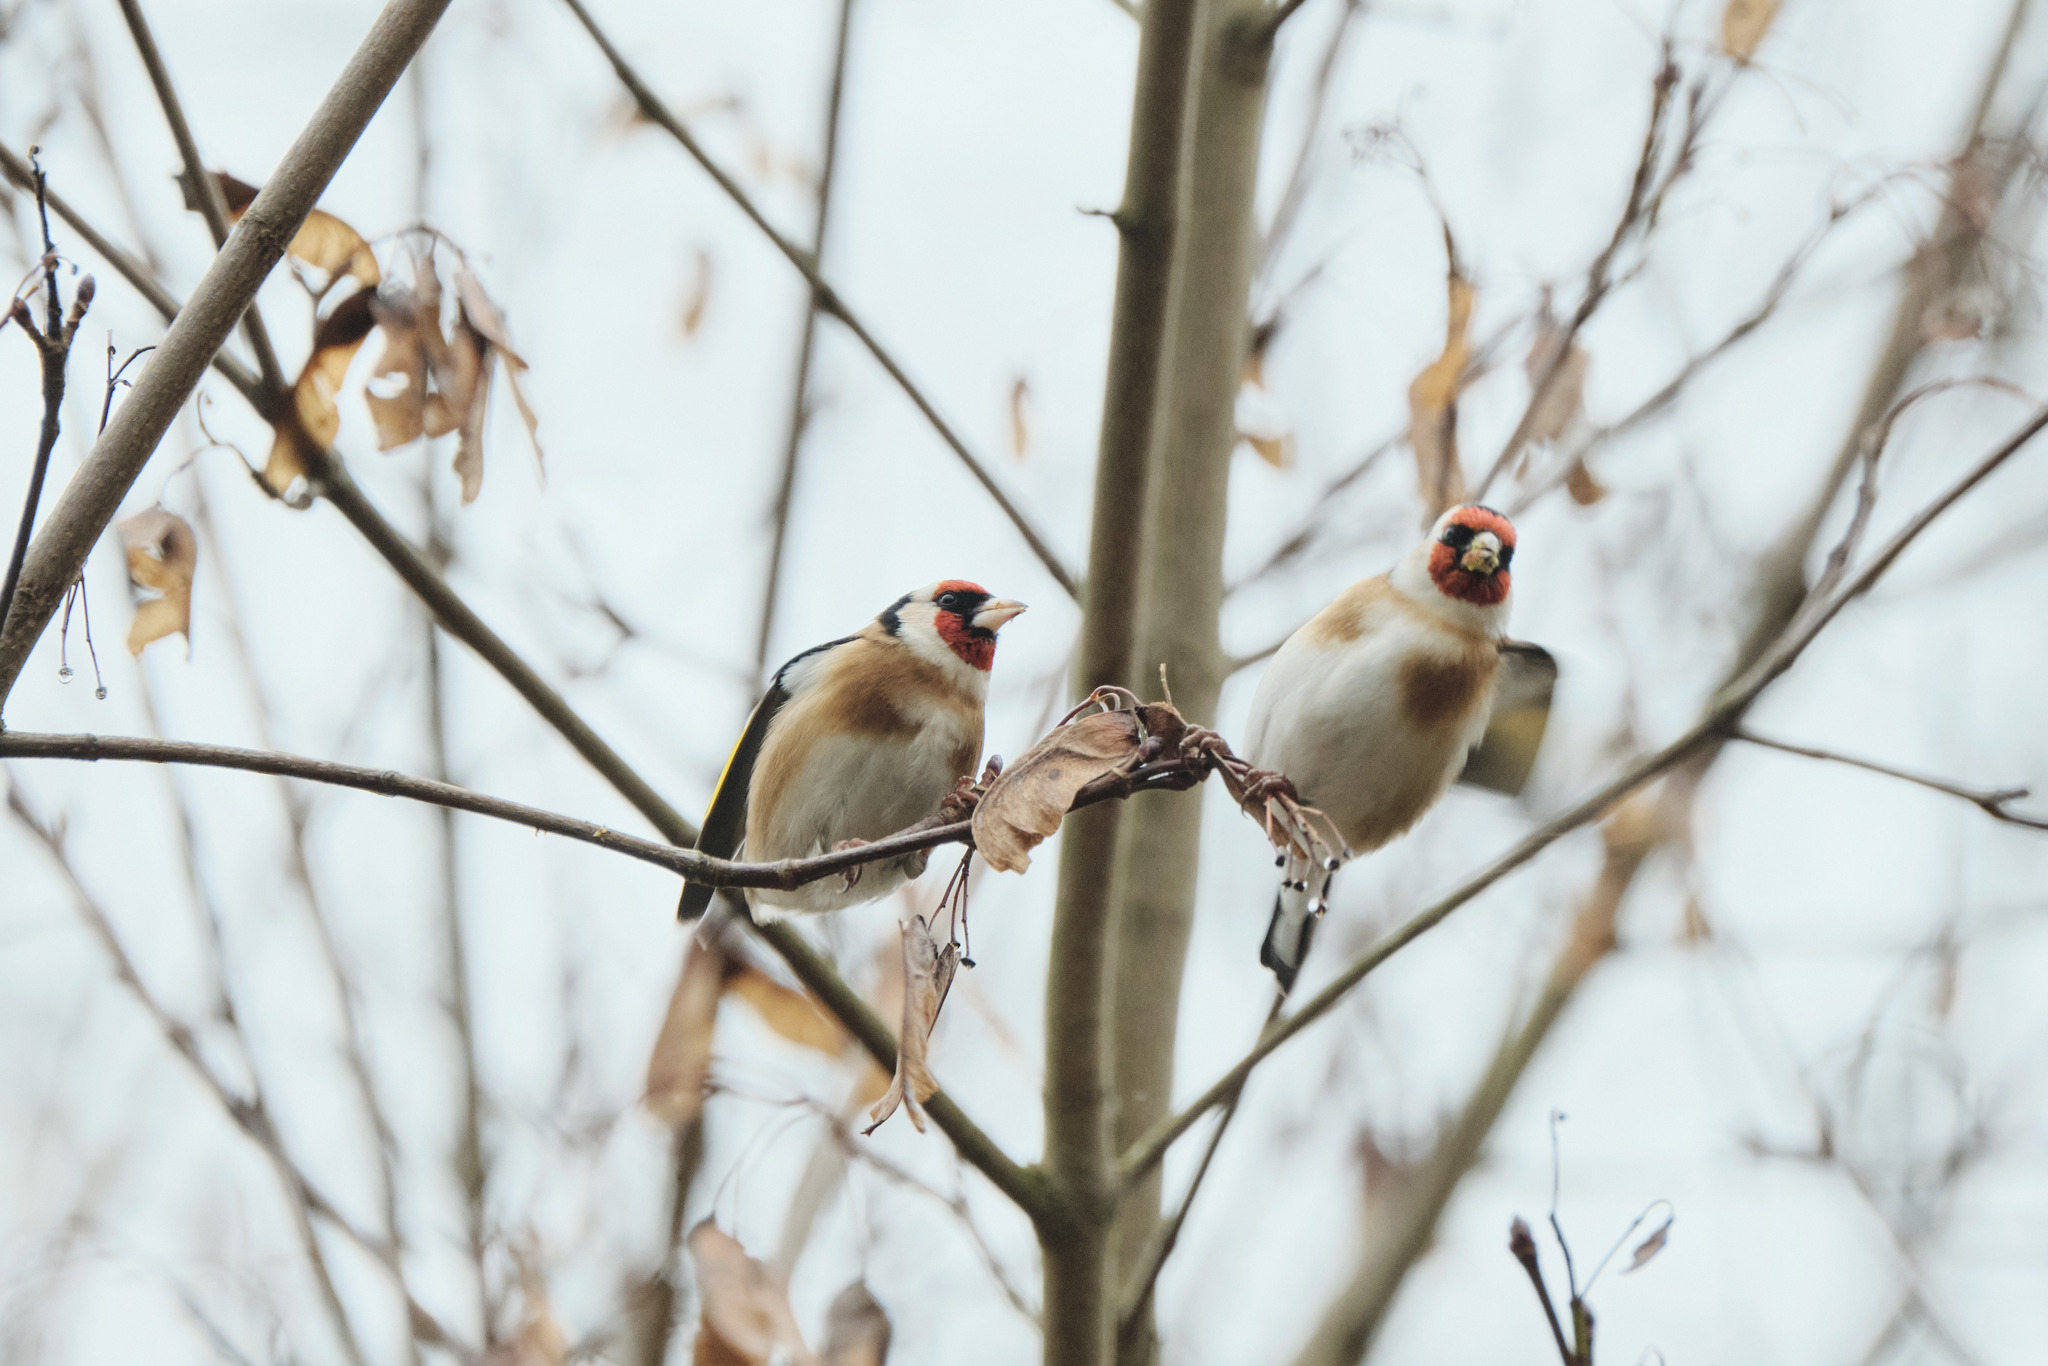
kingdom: Animalia
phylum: Chordata
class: Aves
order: Passeriformes
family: Fringillidae
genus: Carduelis
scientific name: Carduelis carduelis
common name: European goldfinch
